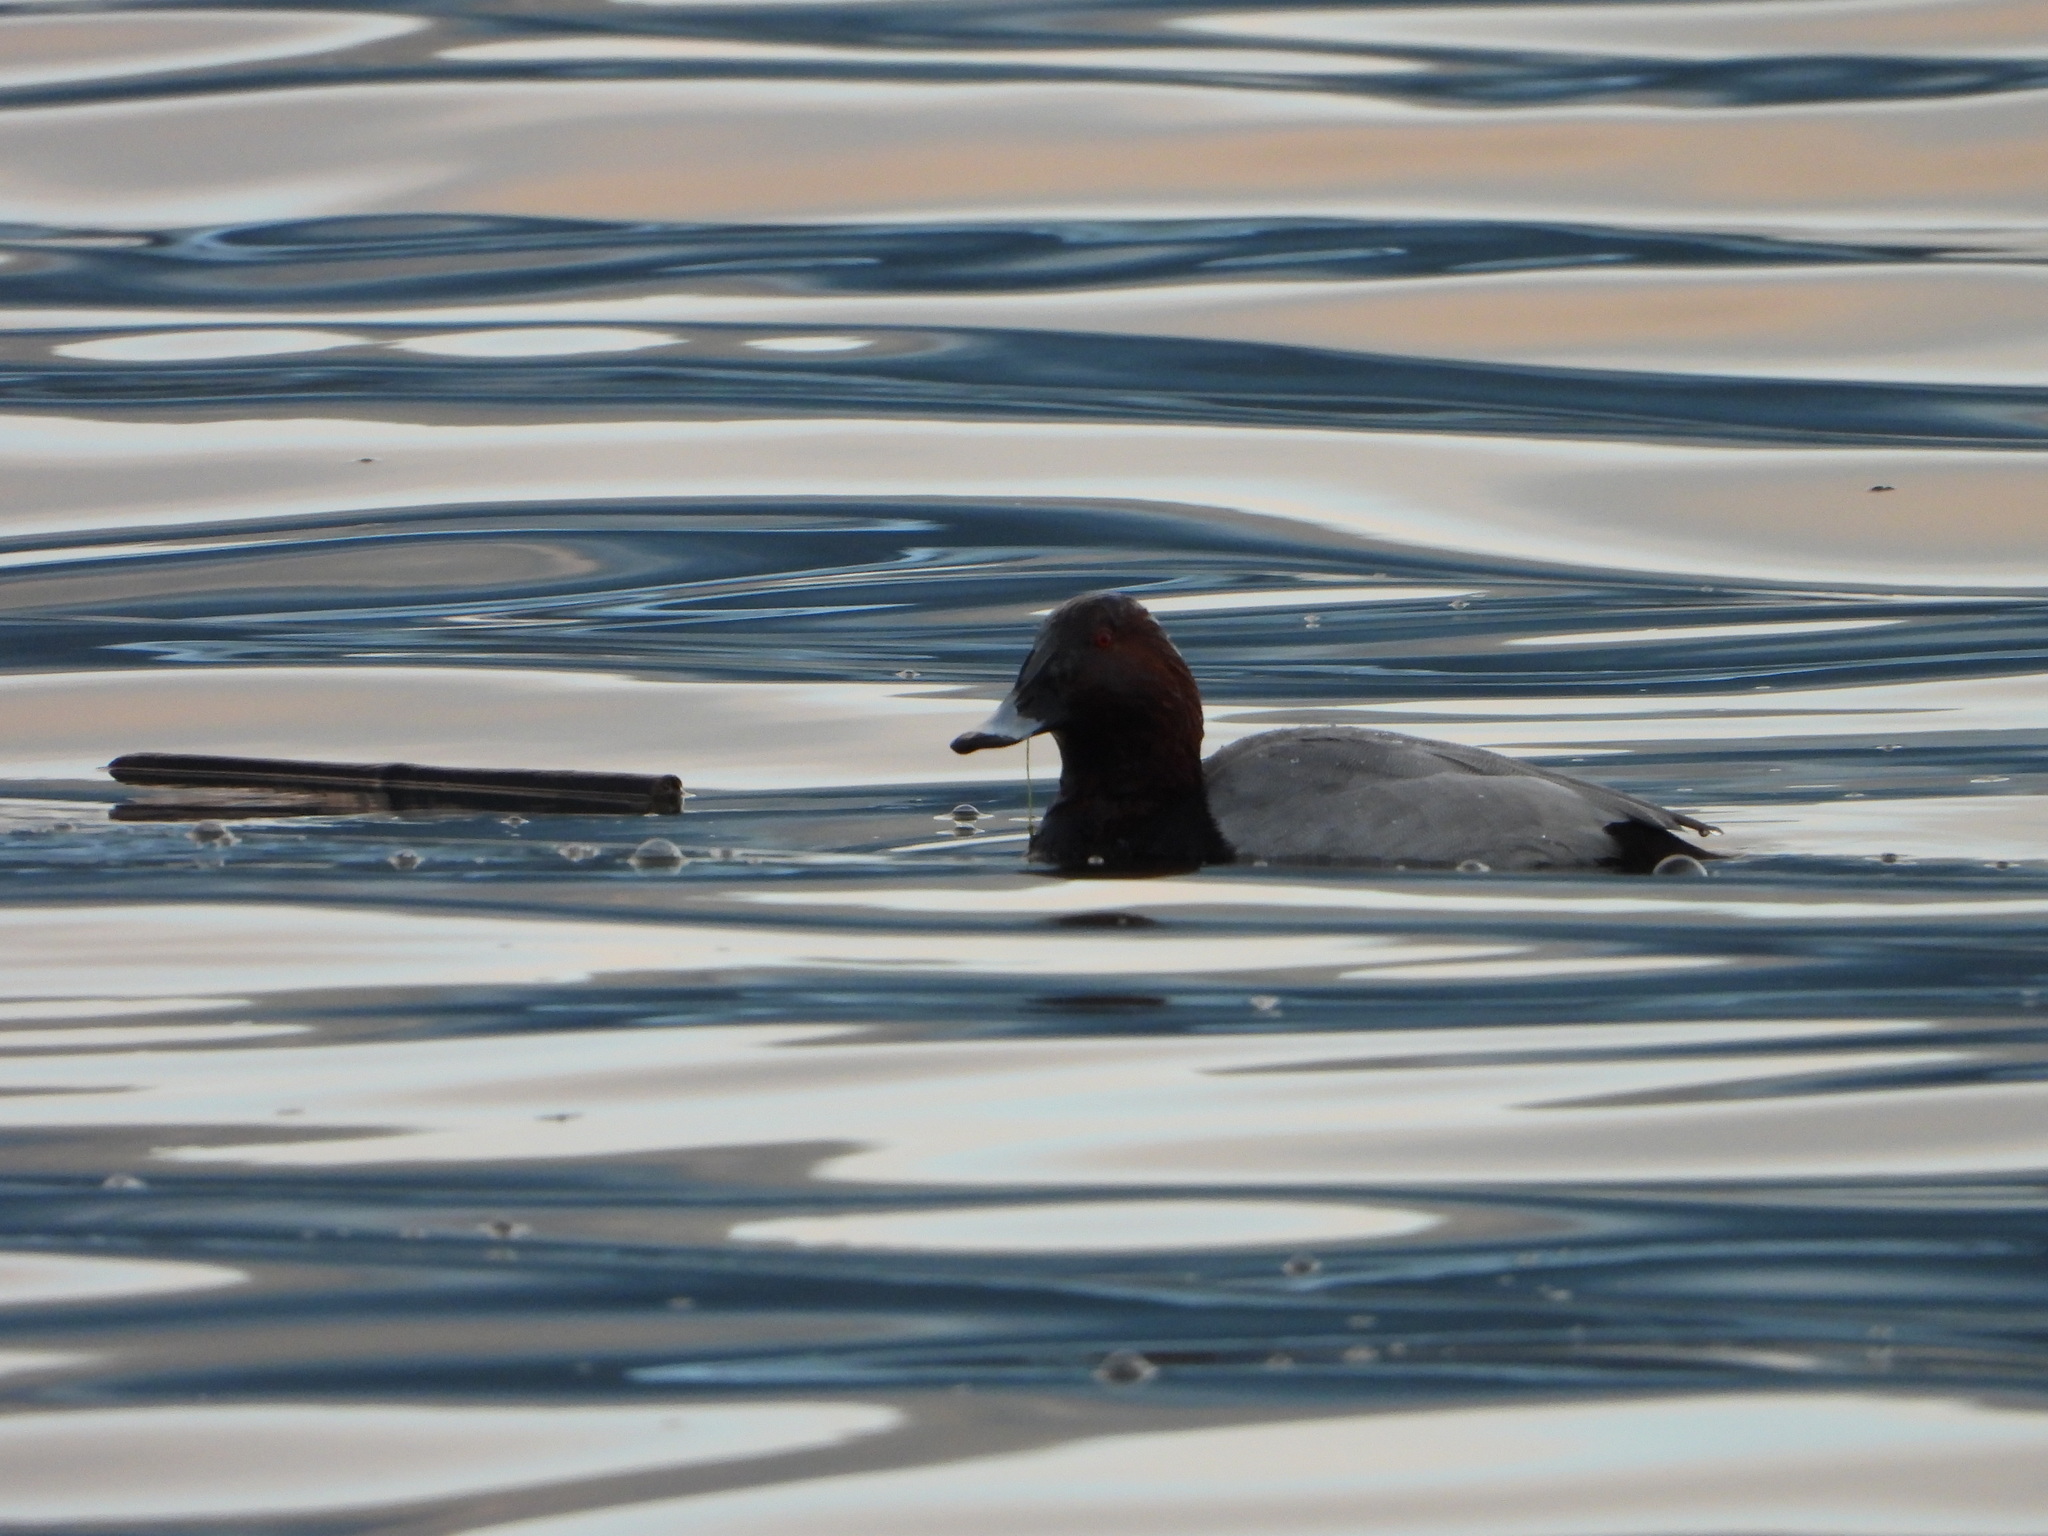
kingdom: Animalia
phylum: Chordata
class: Aves
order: Anseriformes
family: Anatidae
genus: Aythya
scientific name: Aythya ferina
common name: Common pochard
